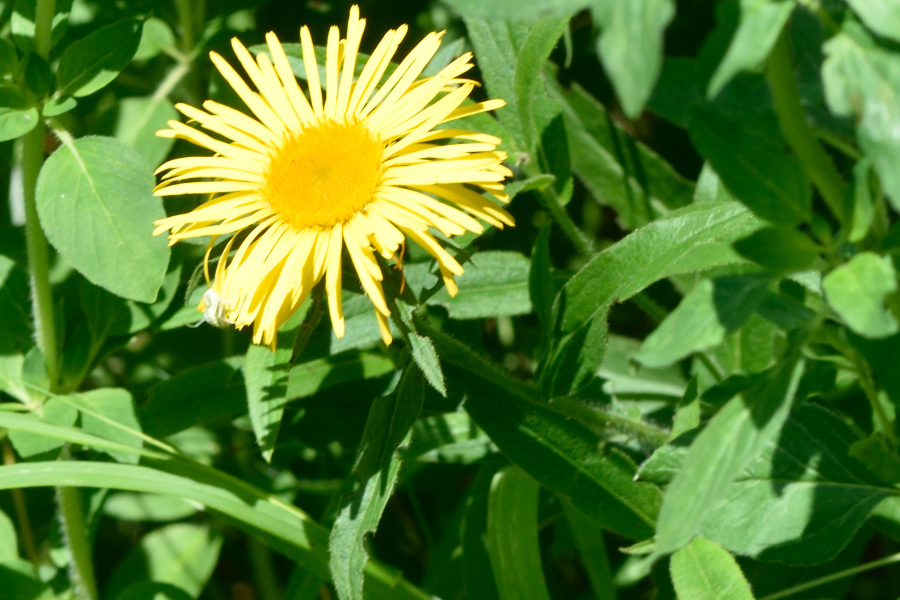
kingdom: Plantae
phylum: Tracheophyta
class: Magnoliopsida
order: Asterales
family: Asteraceae
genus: Pentanema
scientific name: Pentanema hirtum
